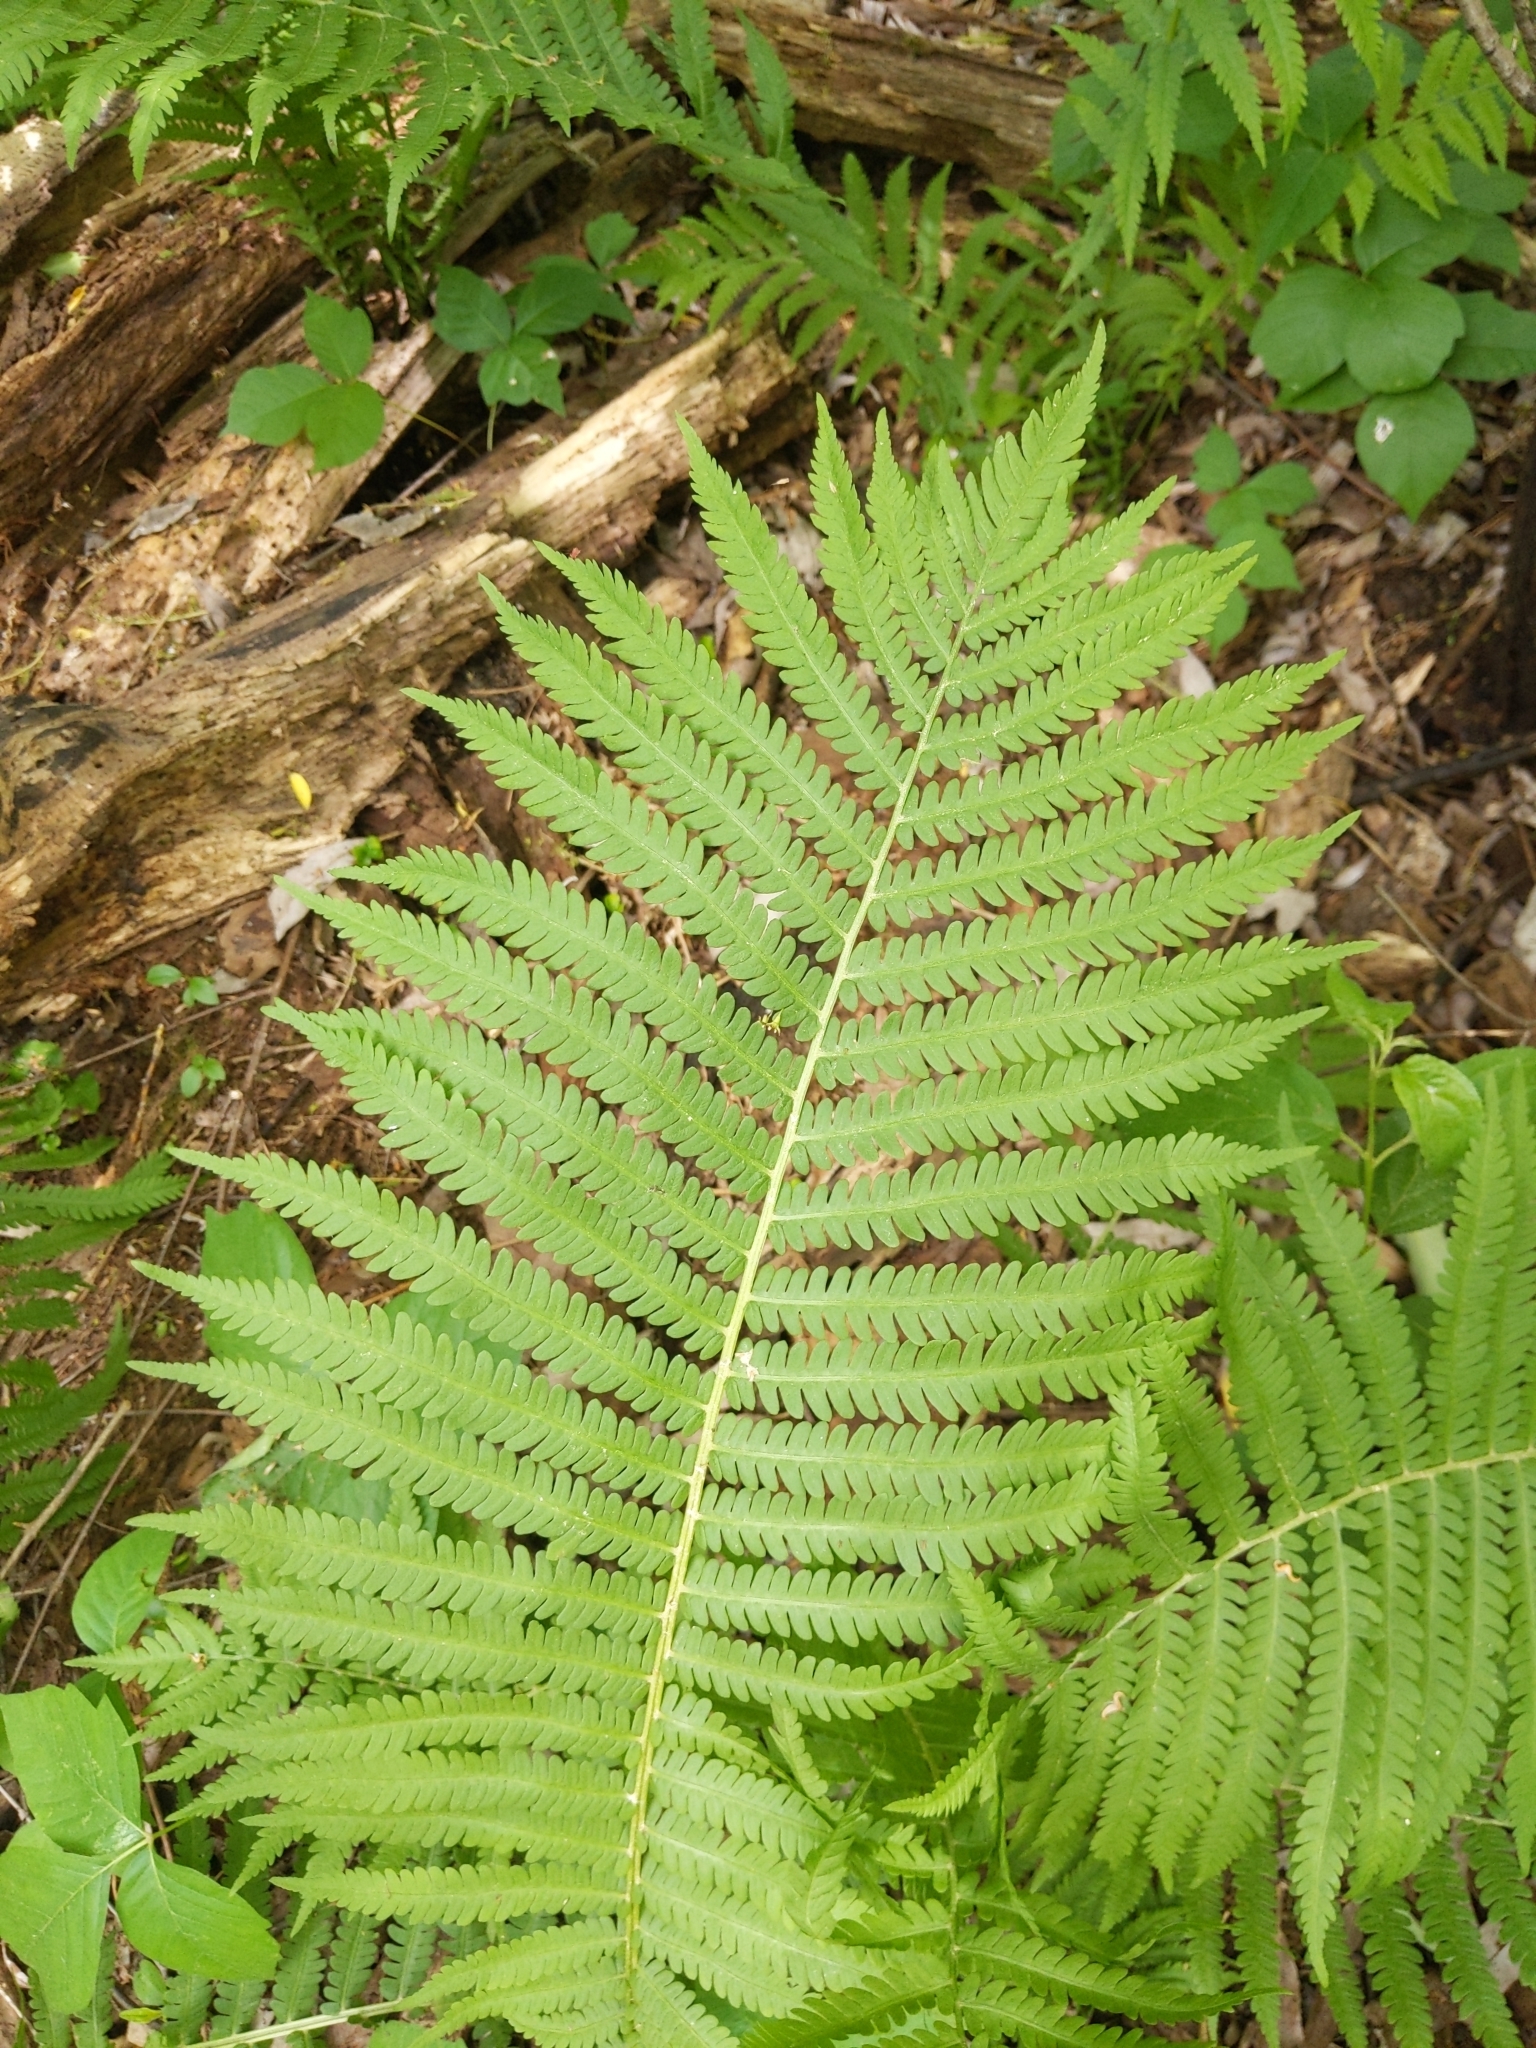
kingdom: Plantae
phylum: Tracheophyta
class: Polypodiopsida
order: Polypodiales
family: Onocleaceae
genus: Matteuccia
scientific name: Matteuccia struthiopteris
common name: Ostrich fern
